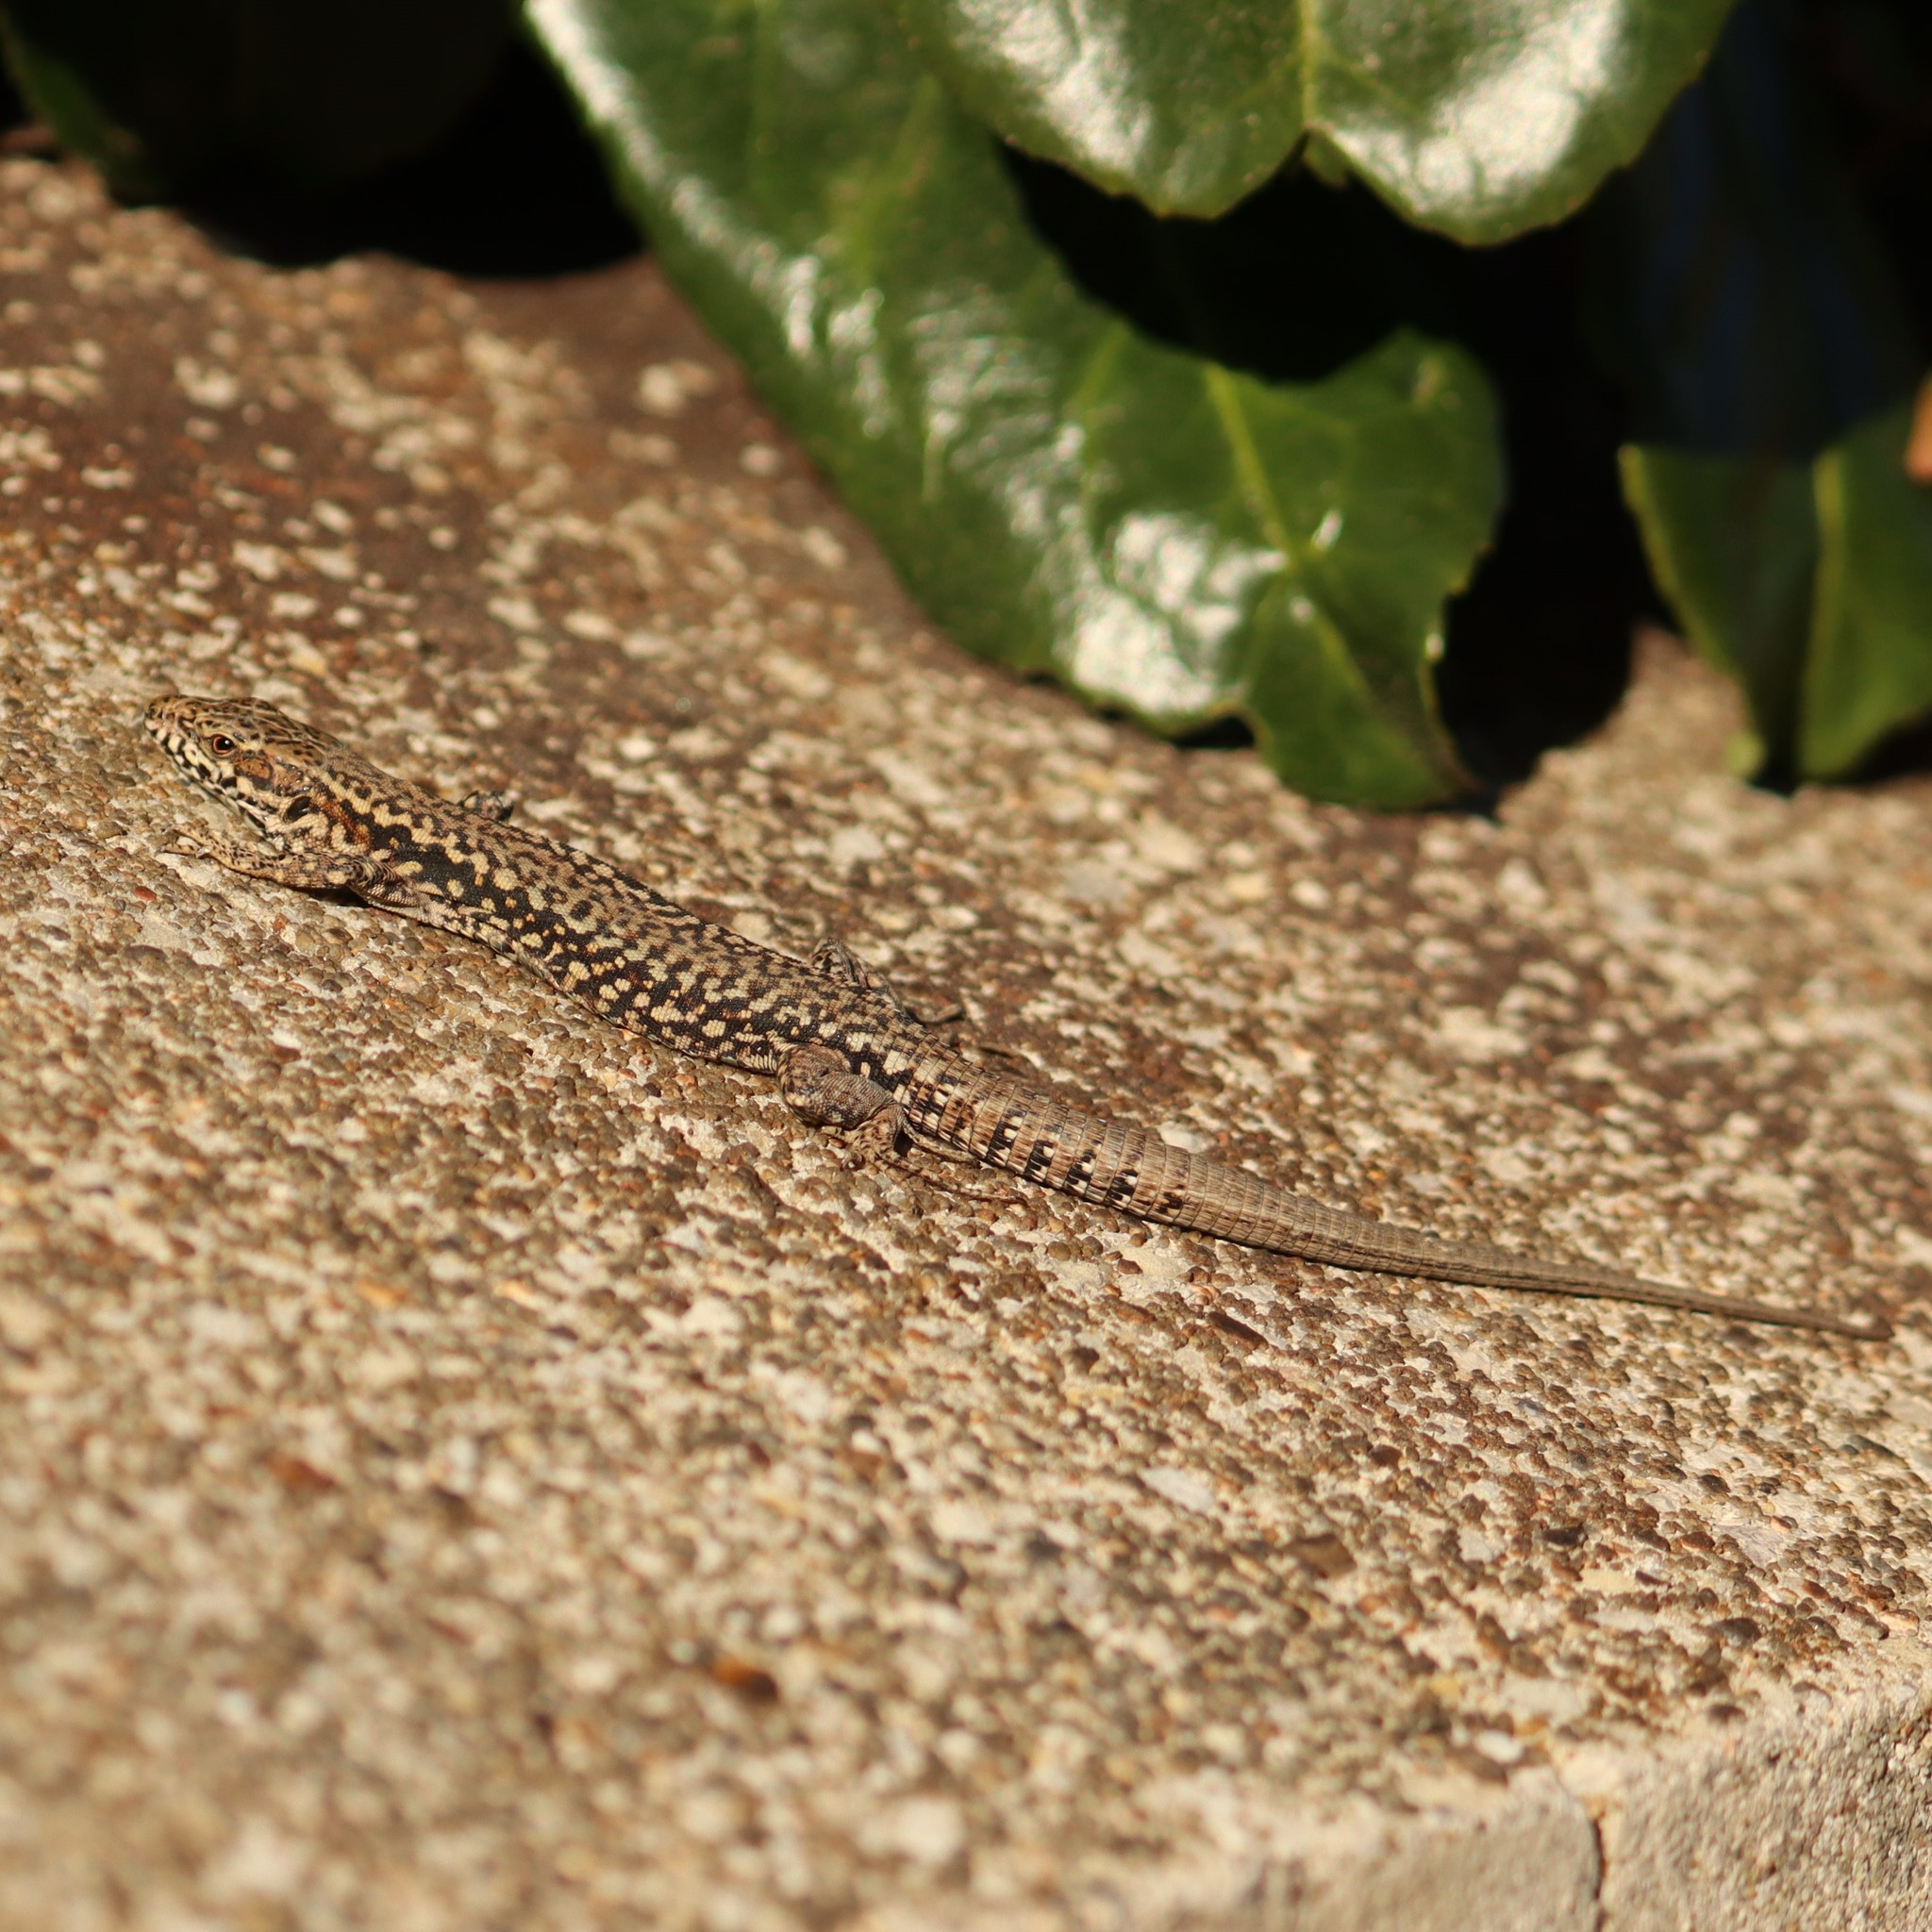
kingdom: Animalia
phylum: Chordata
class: Squamata
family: Lacertidae
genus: Podarcis
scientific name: Podarcis muralis
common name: Common wall lizard
